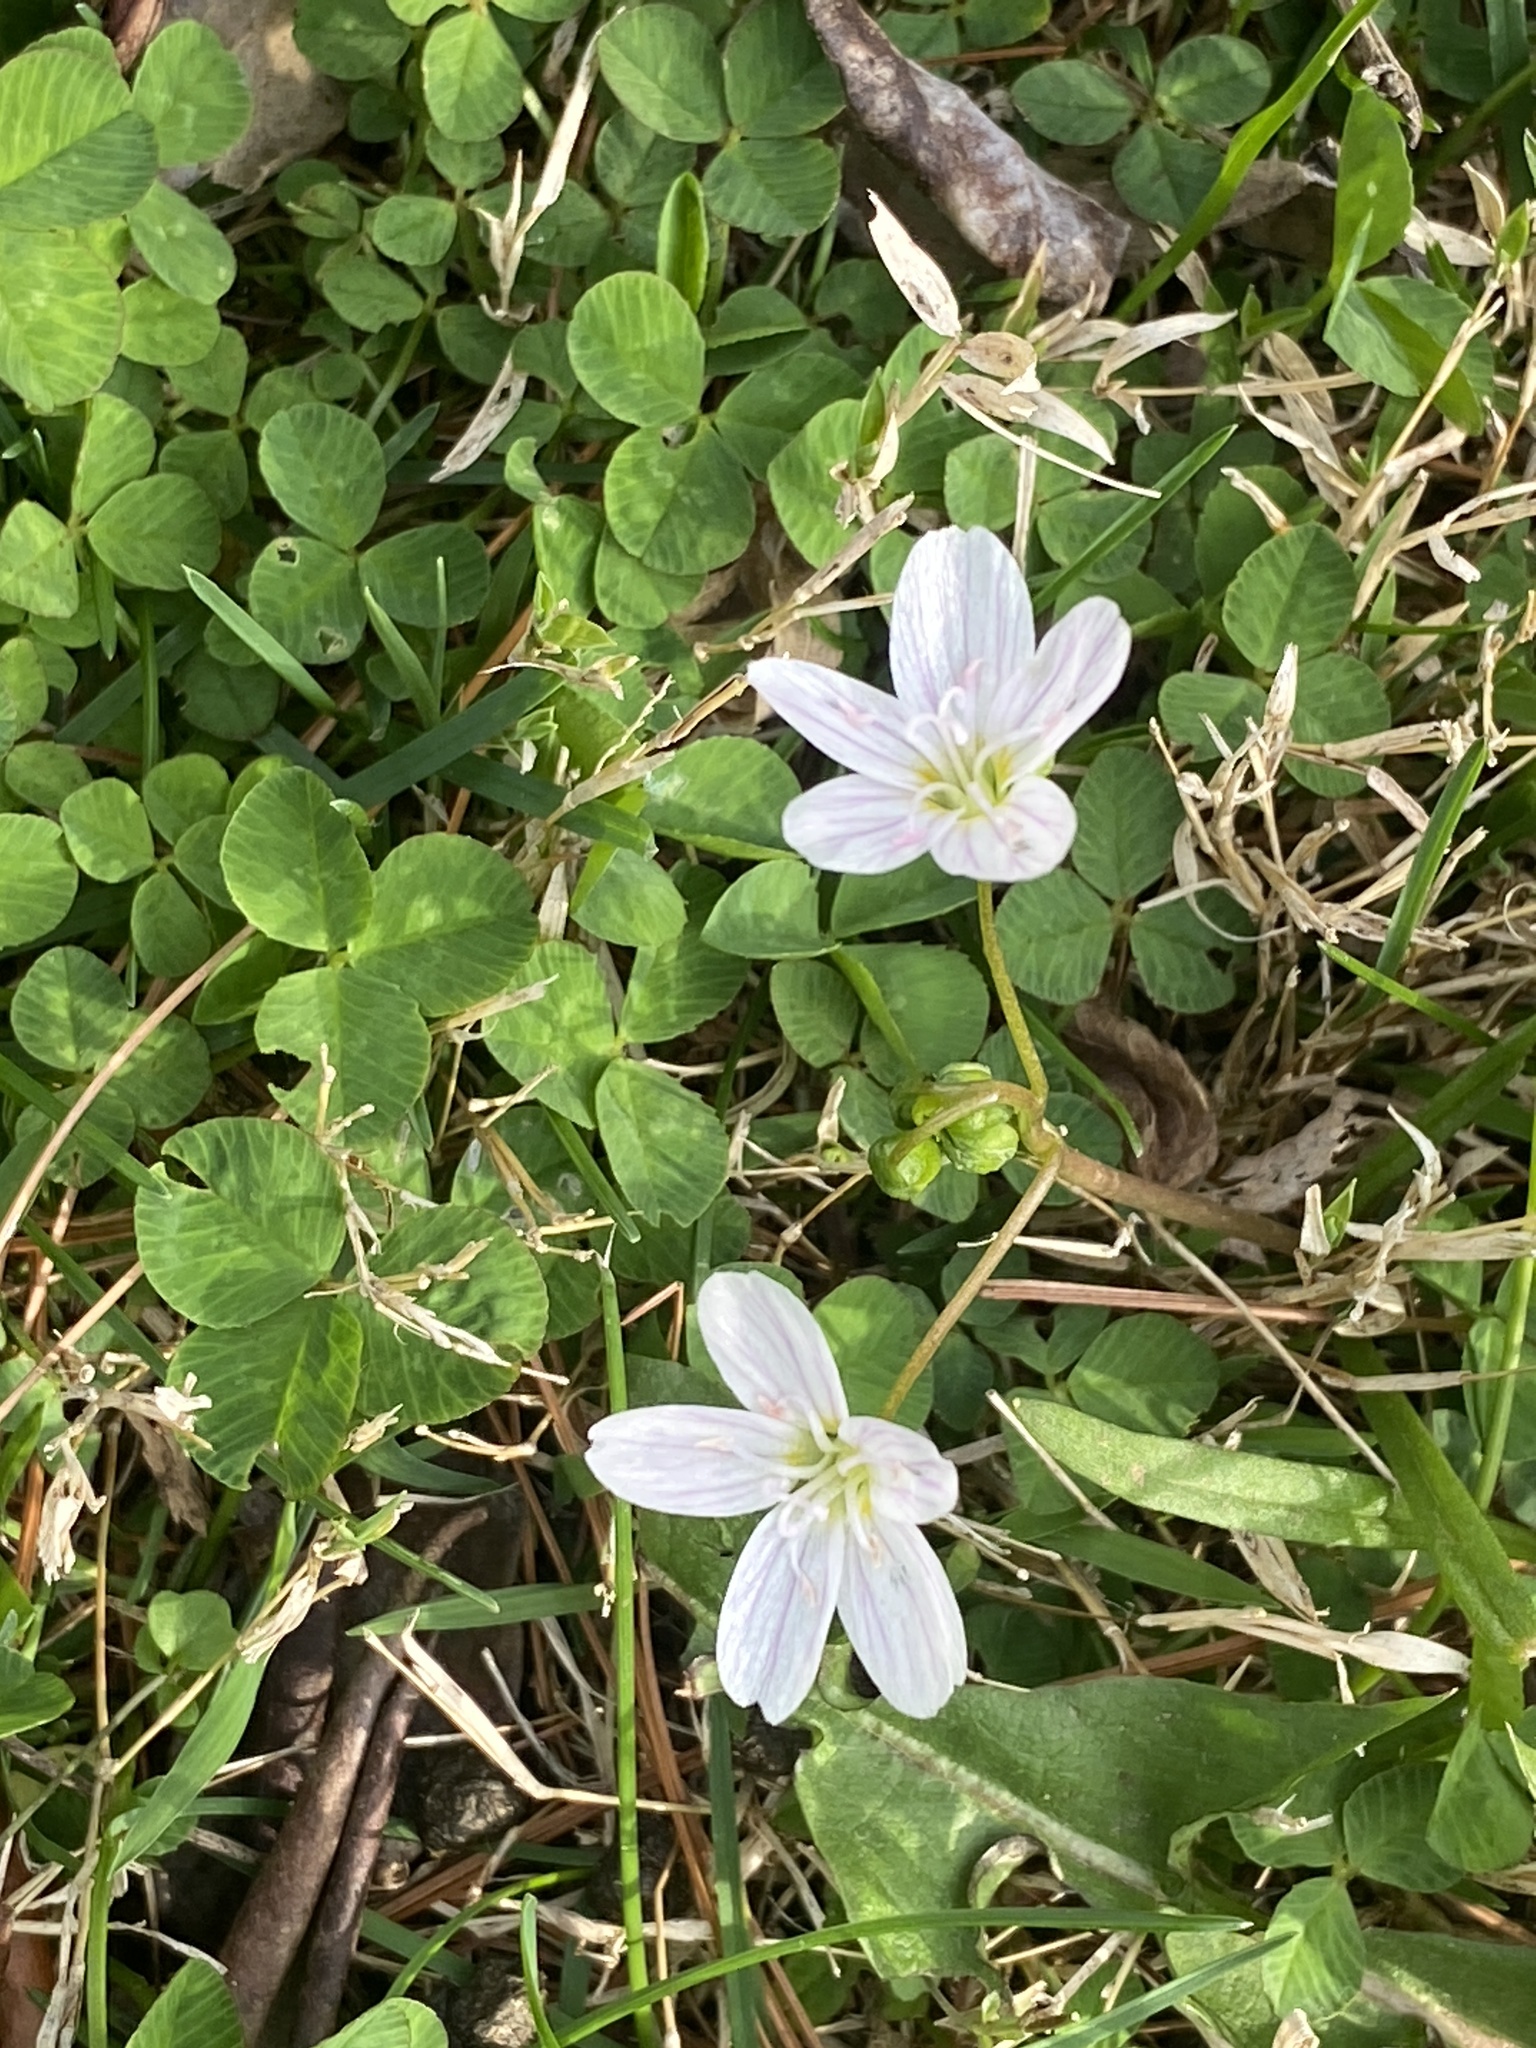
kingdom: Plantae
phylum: Tracheophyta
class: Magnoliopsida
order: Caryophyllales
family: Montiaceae
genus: Claytonia
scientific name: Claytonia virginica
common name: Virginia springbeauty
